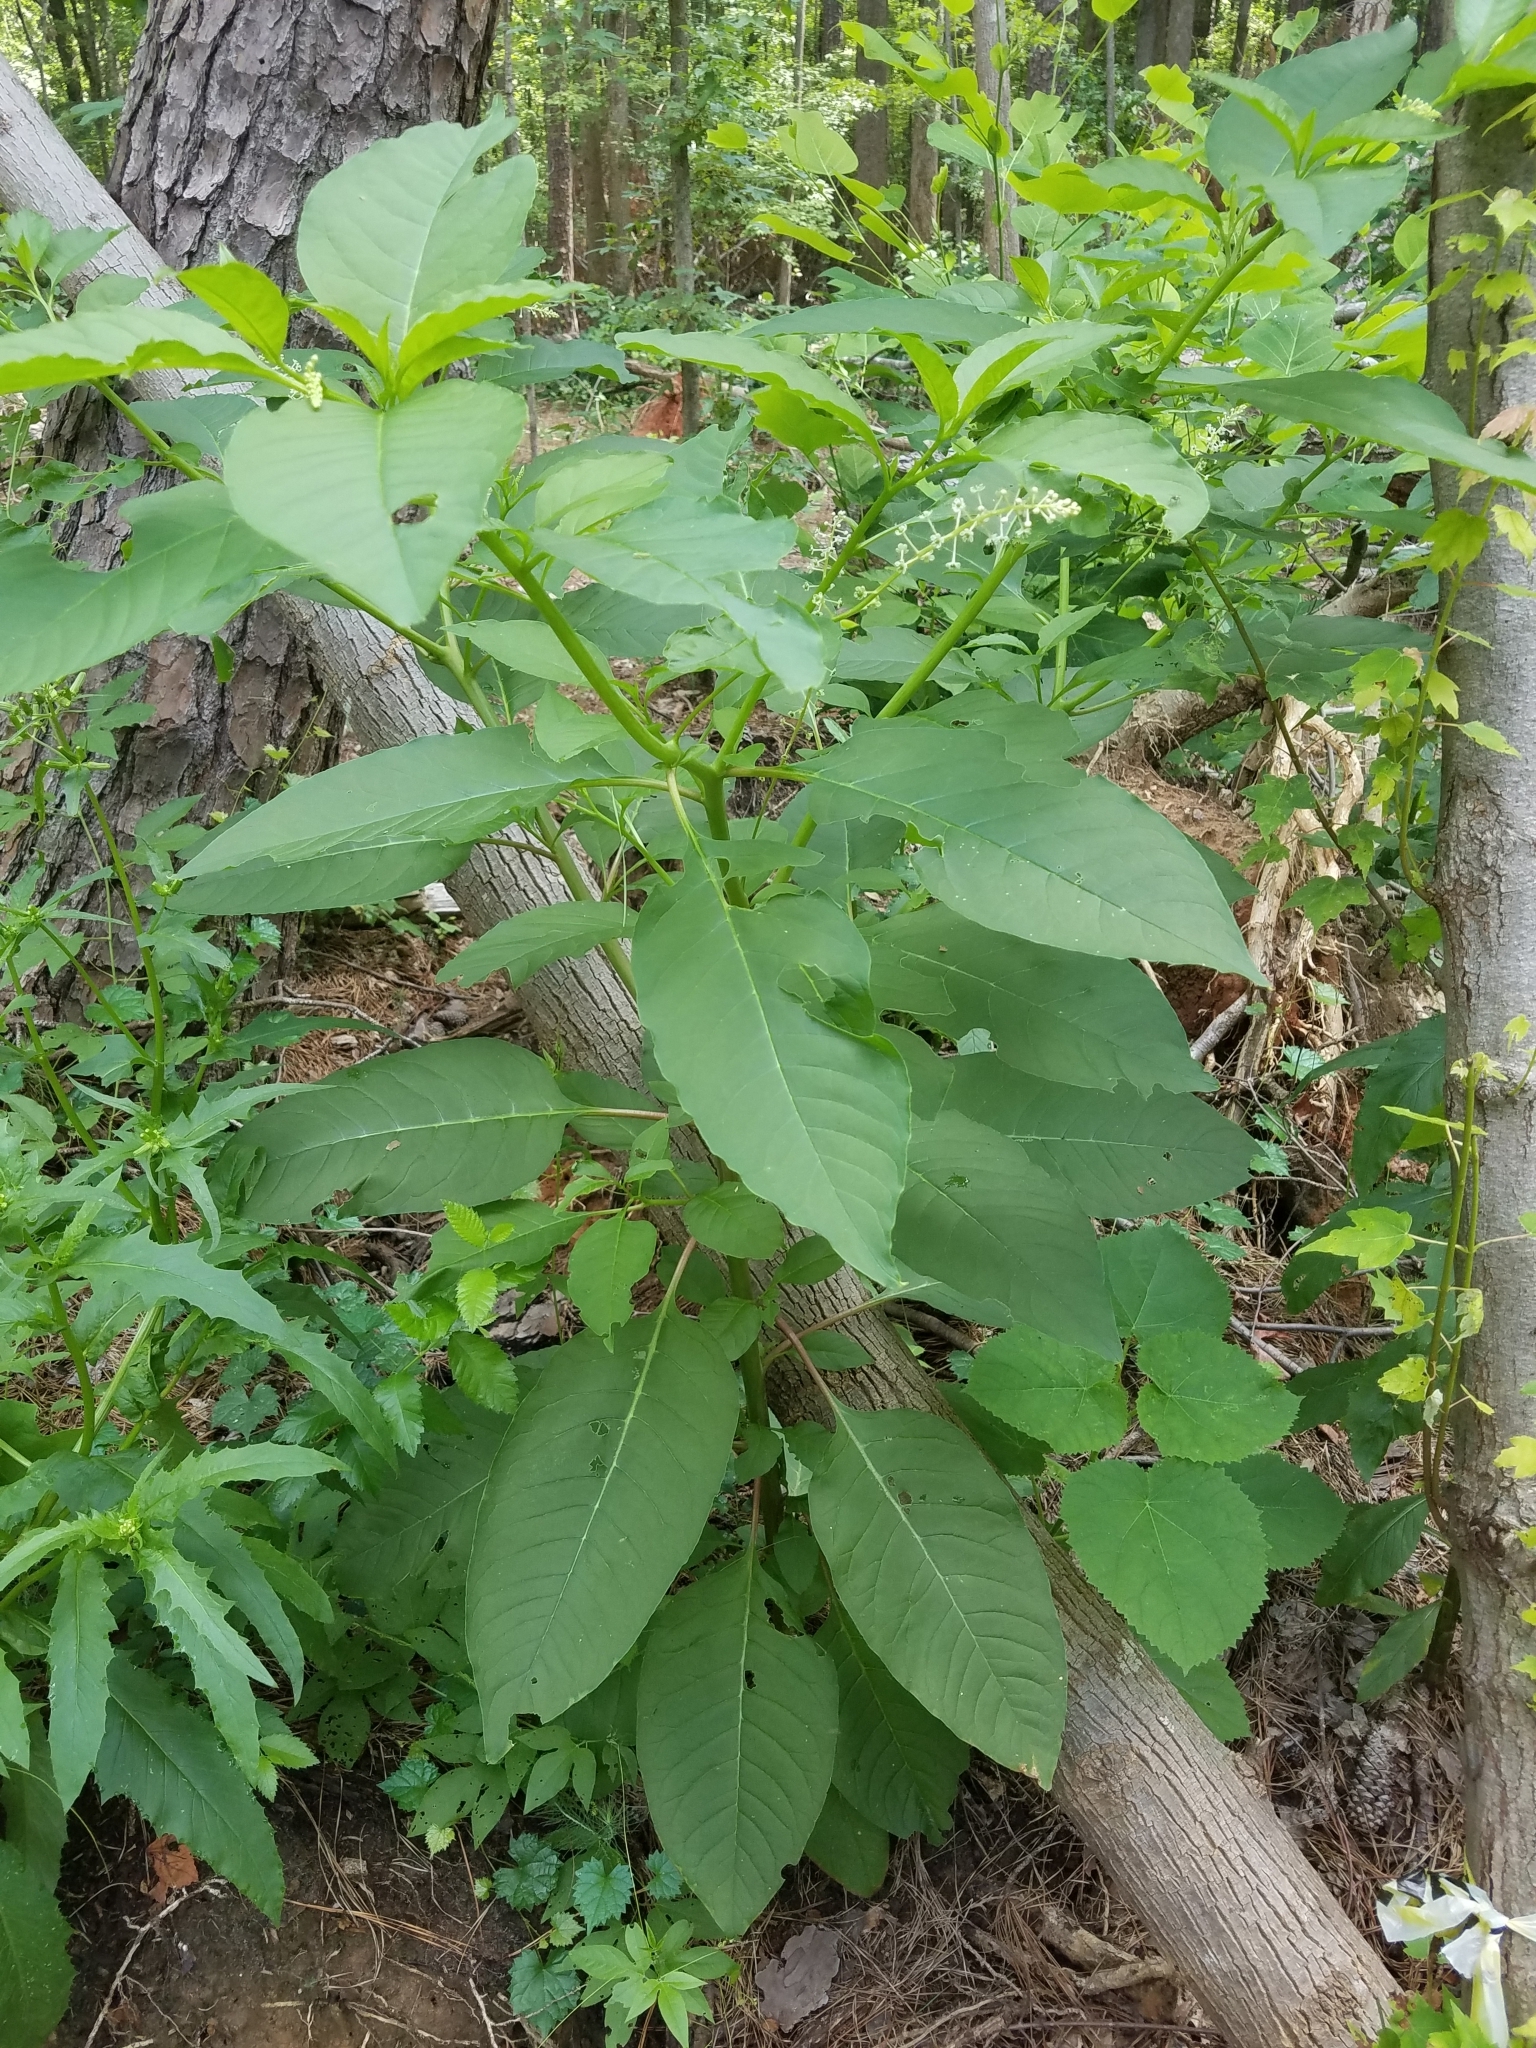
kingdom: Plantae
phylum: Tracheophyta
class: Magnoliopsida
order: Caryophyllales
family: Phytolaccaceae
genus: Phytolacca
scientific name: Phytolacca americana
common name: American pokeweed
